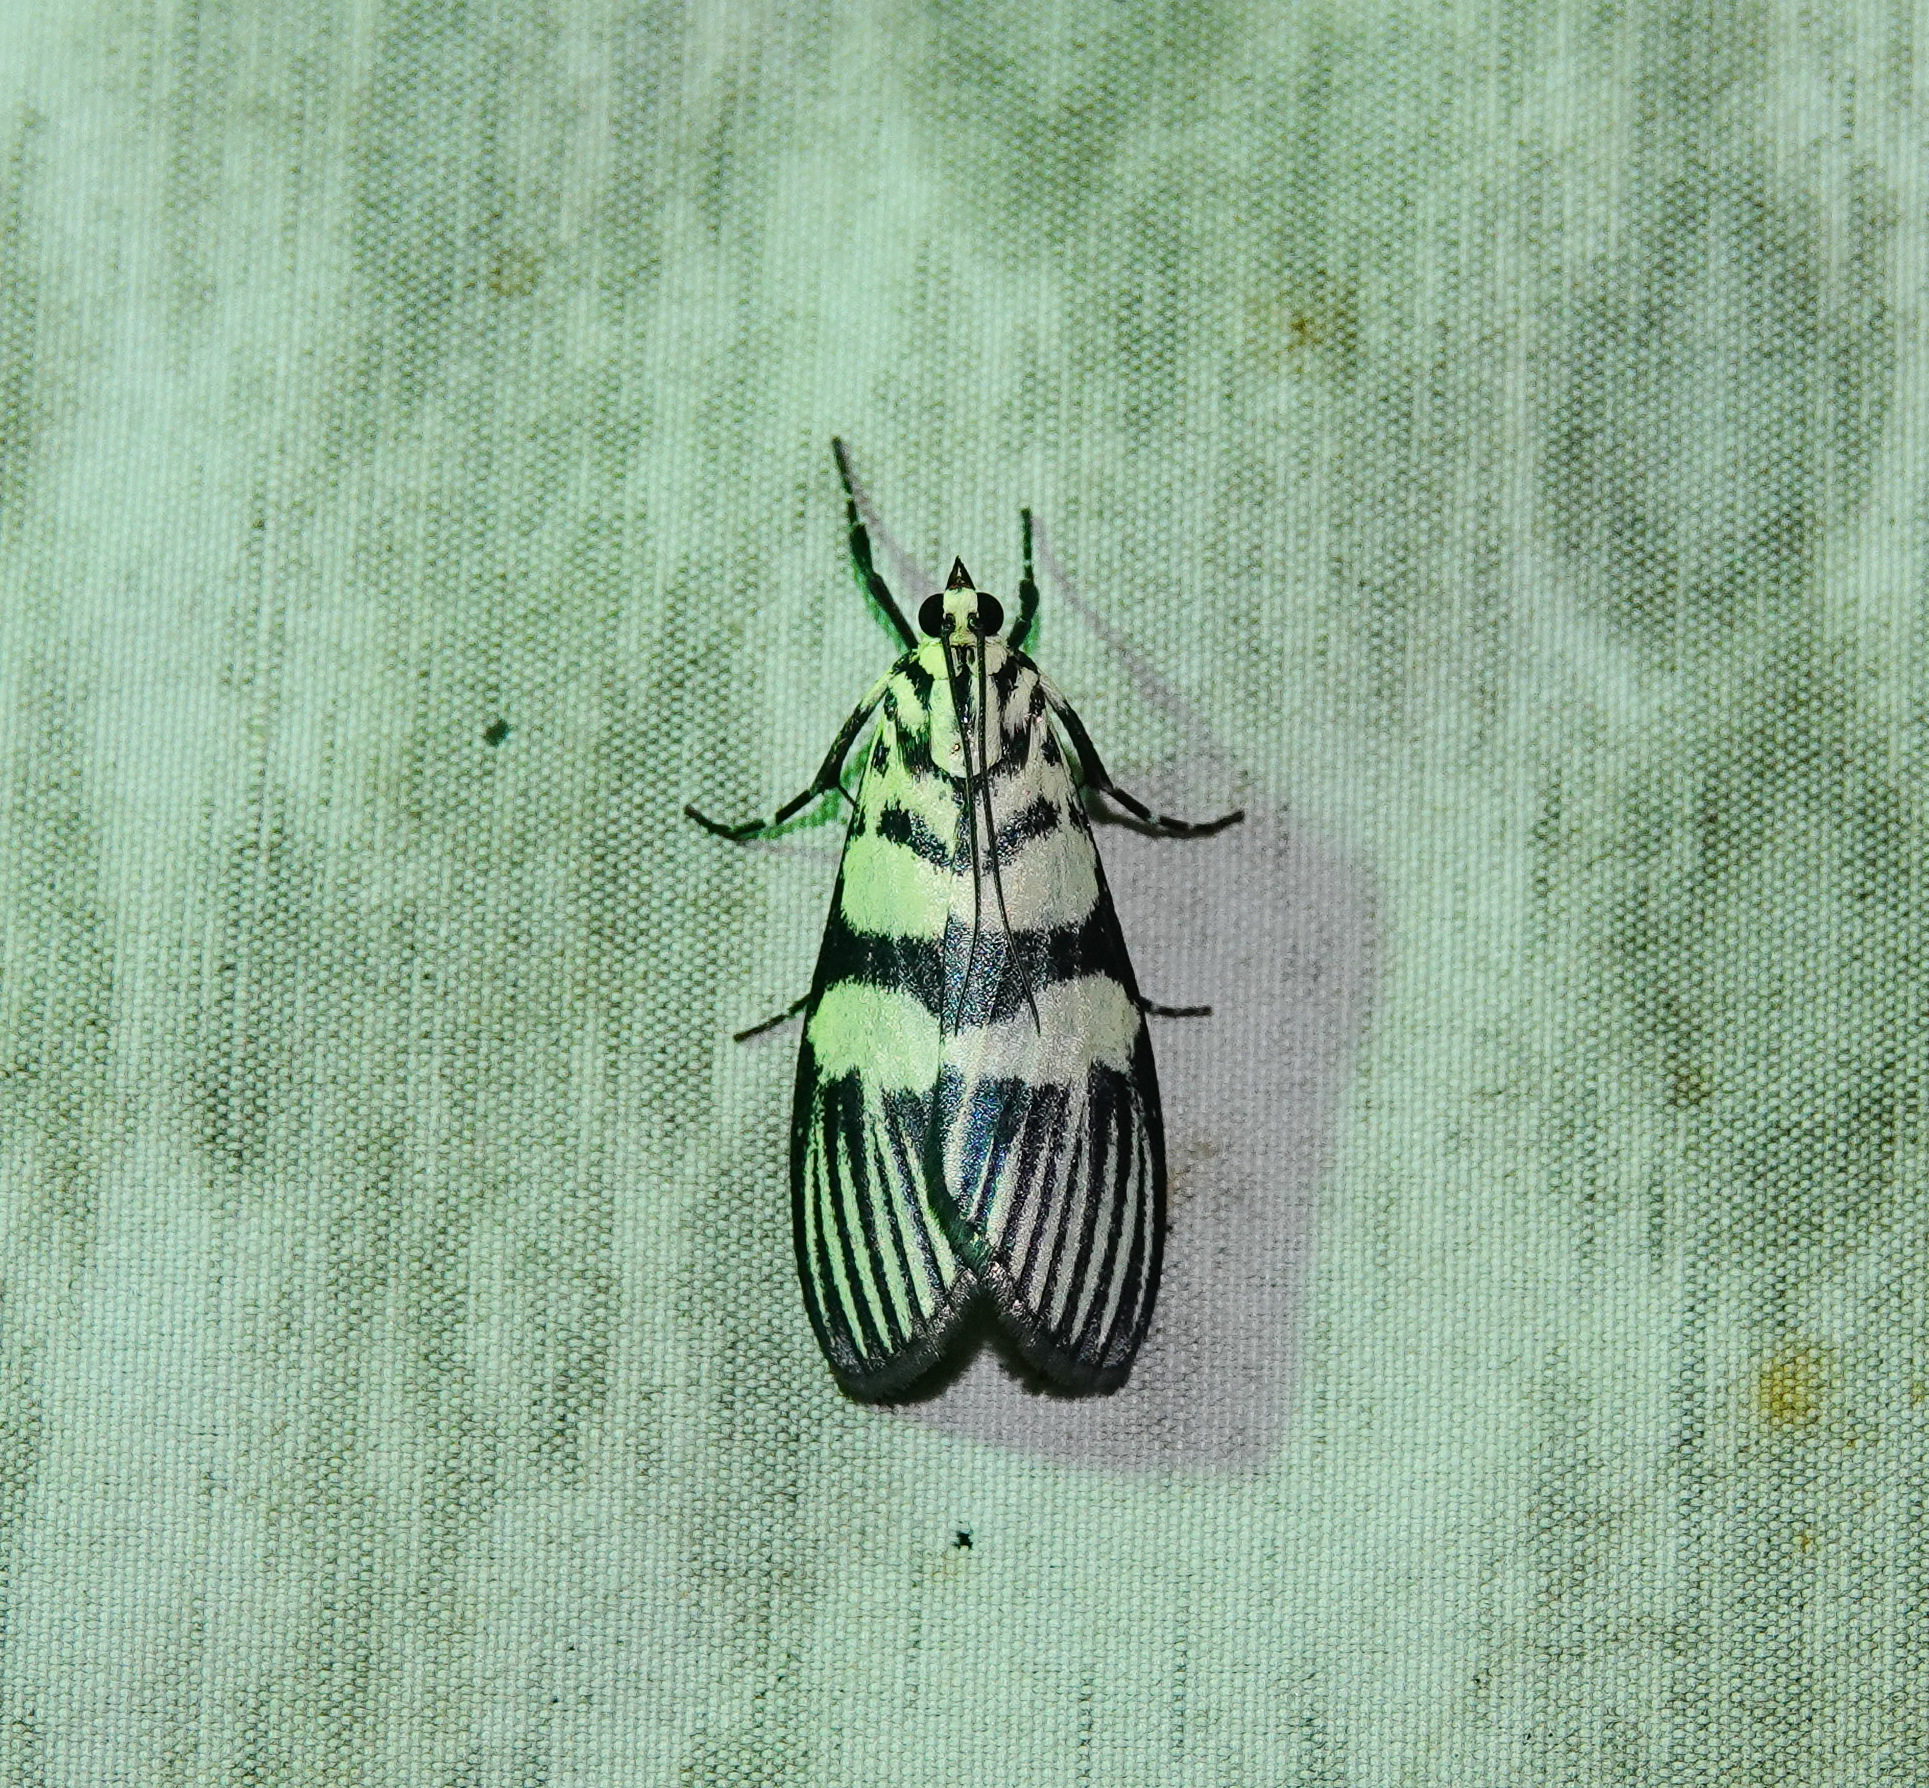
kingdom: Animalia
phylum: Arthropoda
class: Insecta
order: Lepidoptera
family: Crambidae
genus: Heortia
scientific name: Heortia vitessoides
